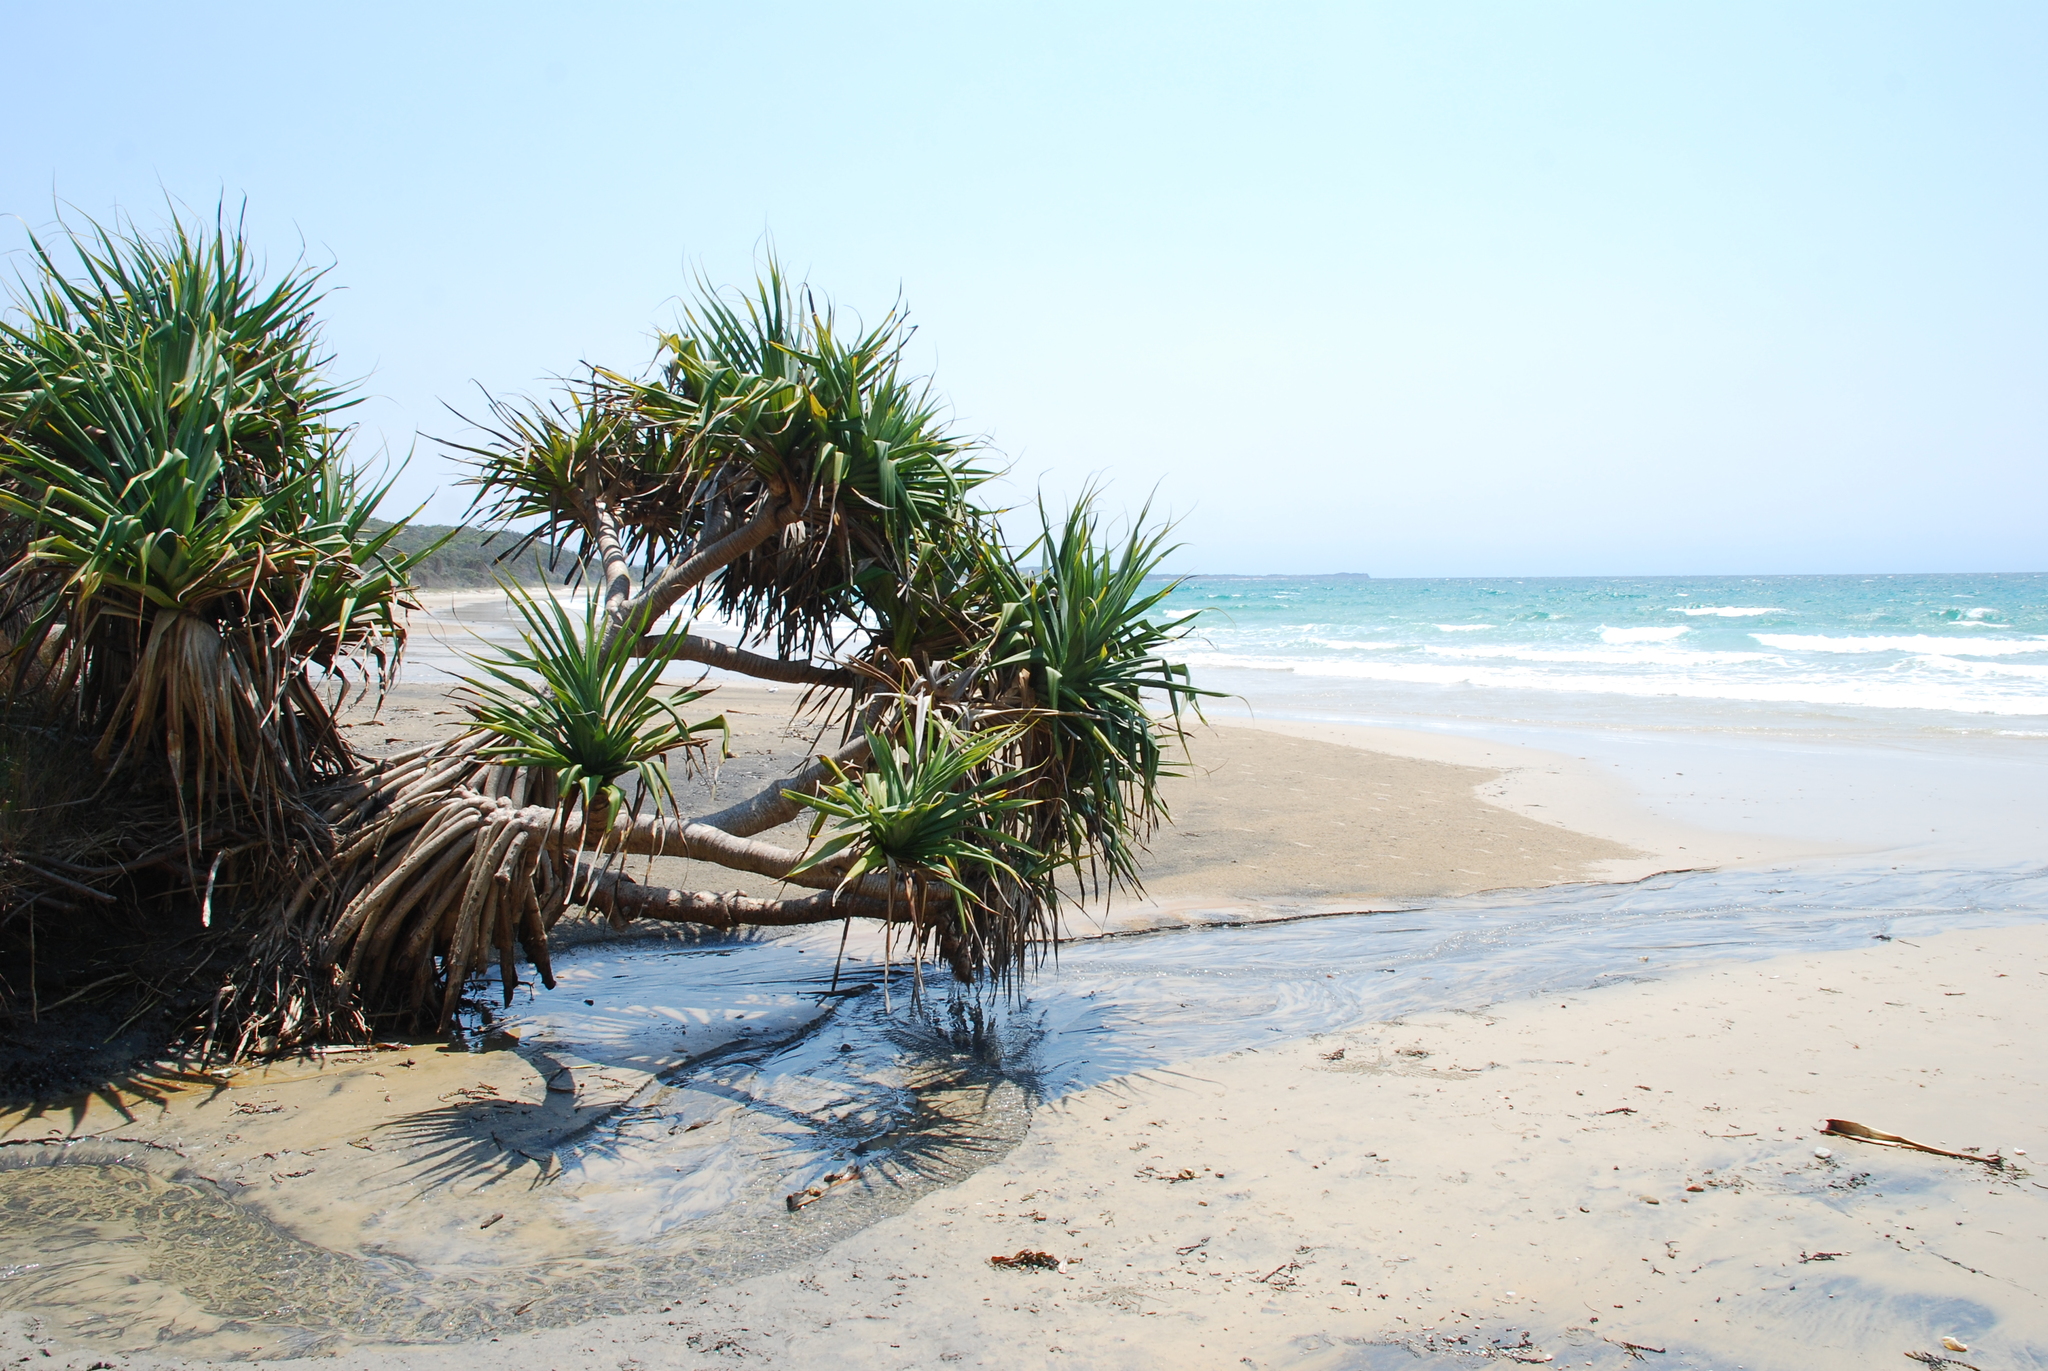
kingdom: Plantae
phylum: Tracheophyta
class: Liliopsida
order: Pandanales
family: Pandanaceae
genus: Pandanus
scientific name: Pandanus tectorius
